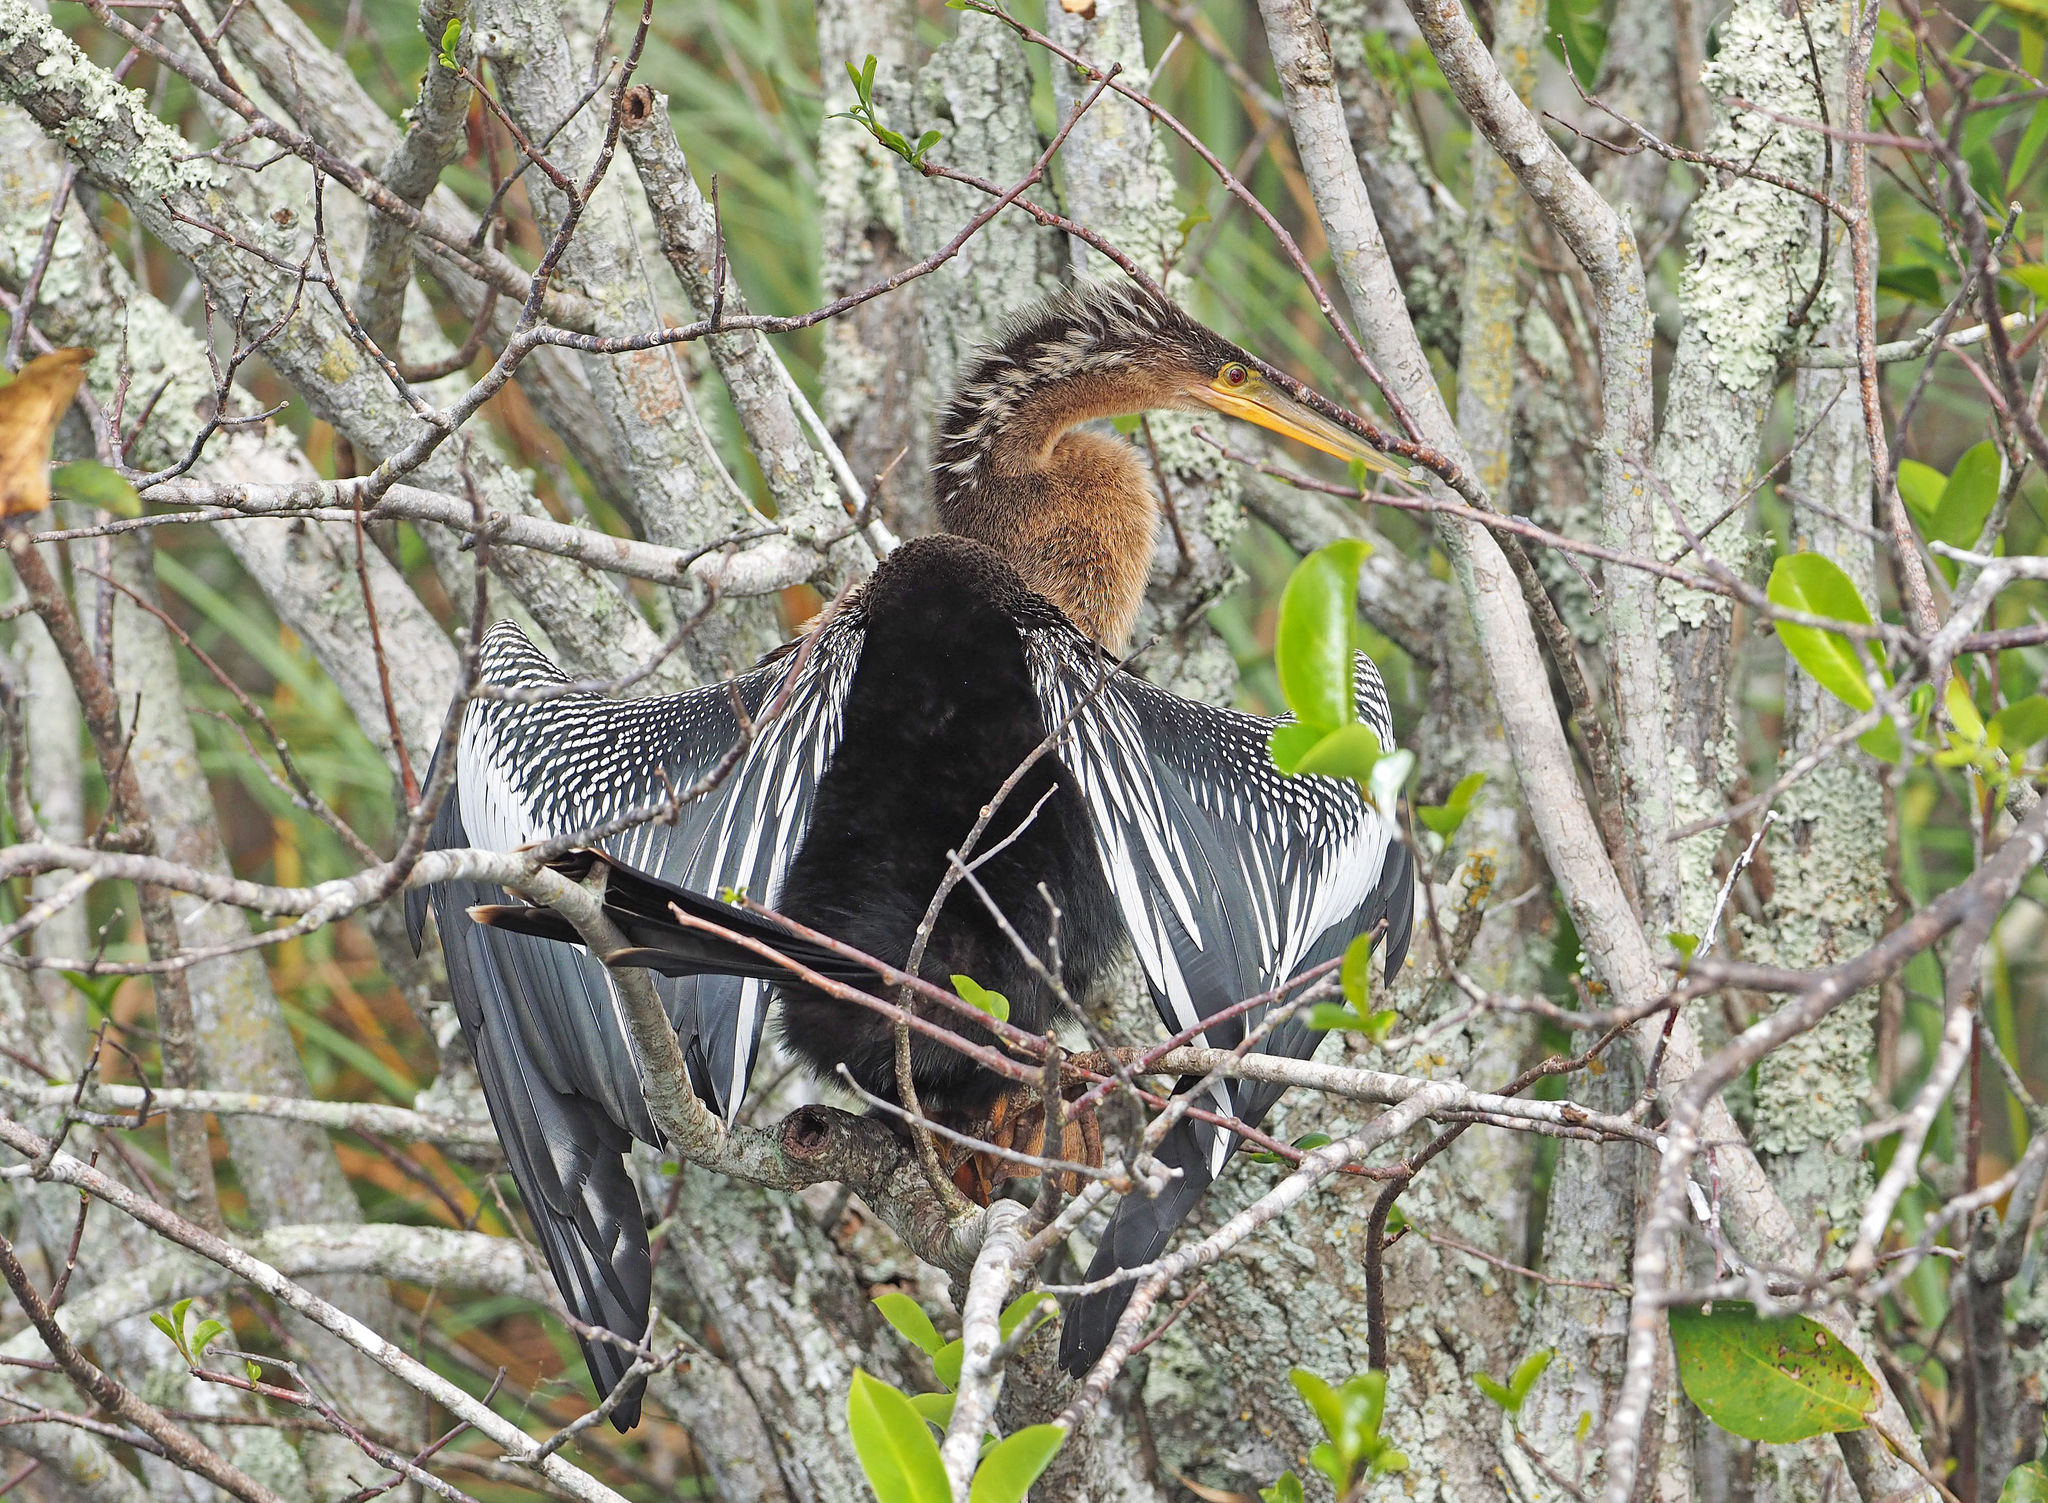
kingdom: Animalia
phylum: Chordata
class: Aves
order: Suliformes
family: Anhingidae
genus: Anhinga
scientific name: Anhinga anhinga
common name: Anhinga
